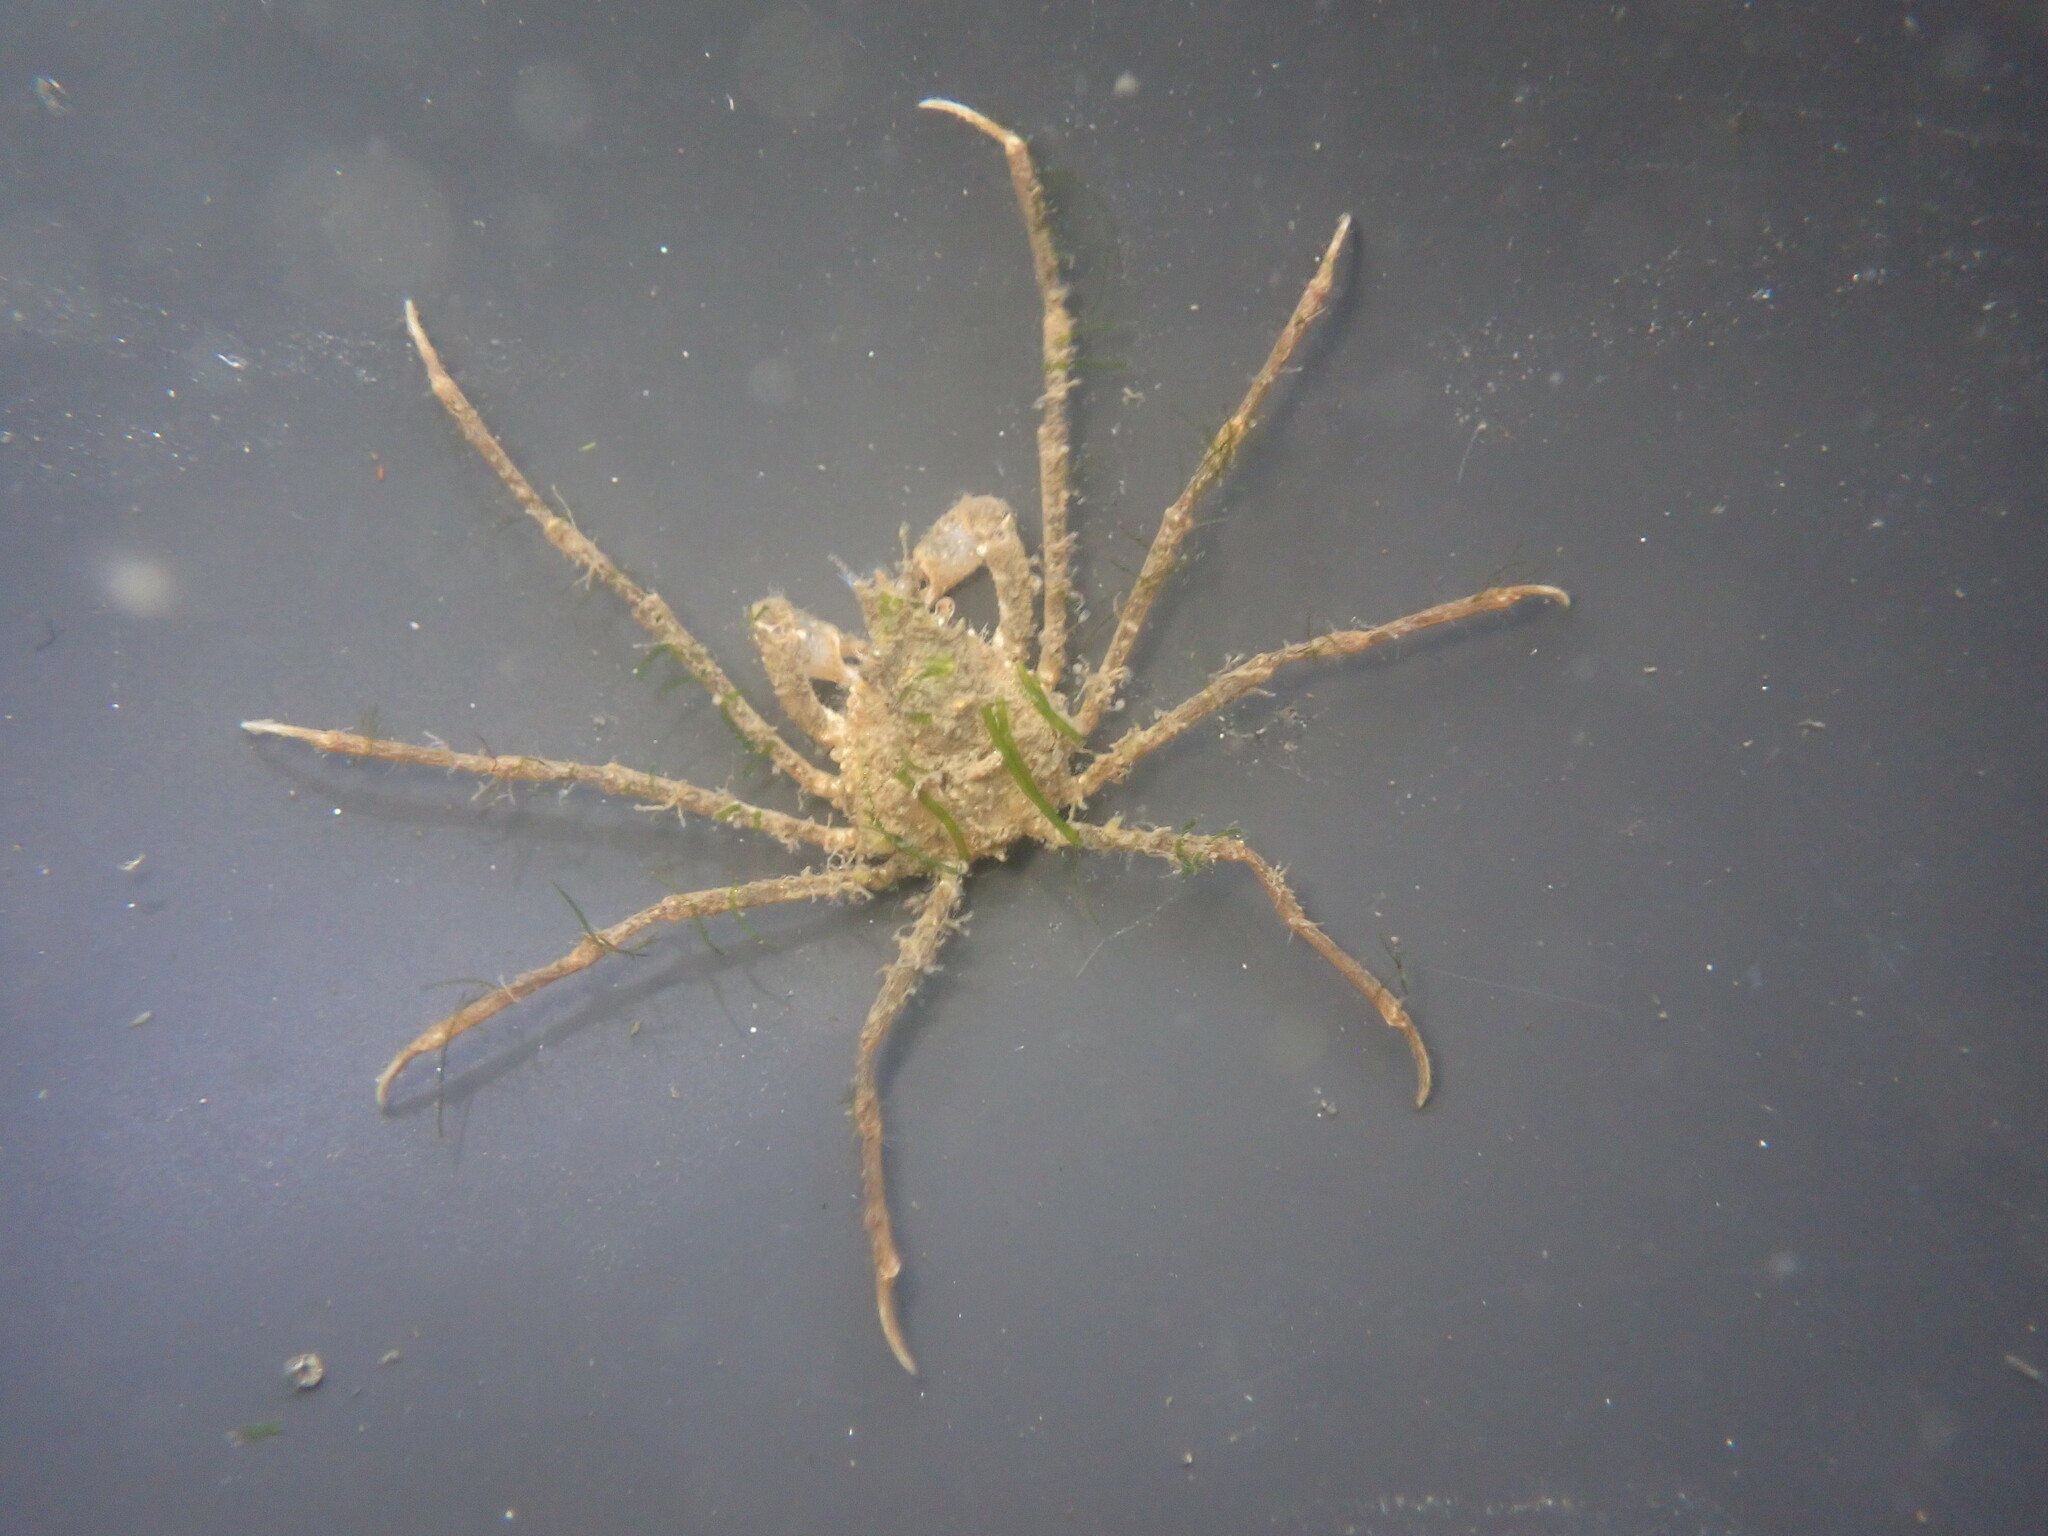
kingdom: Animalia
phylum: Arthropoda
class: Malacostraca
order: Decapoda
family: Inachoididae
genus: Pyromaia
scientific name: Pyromaia tuberculata
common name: Tuberculate pear crab
